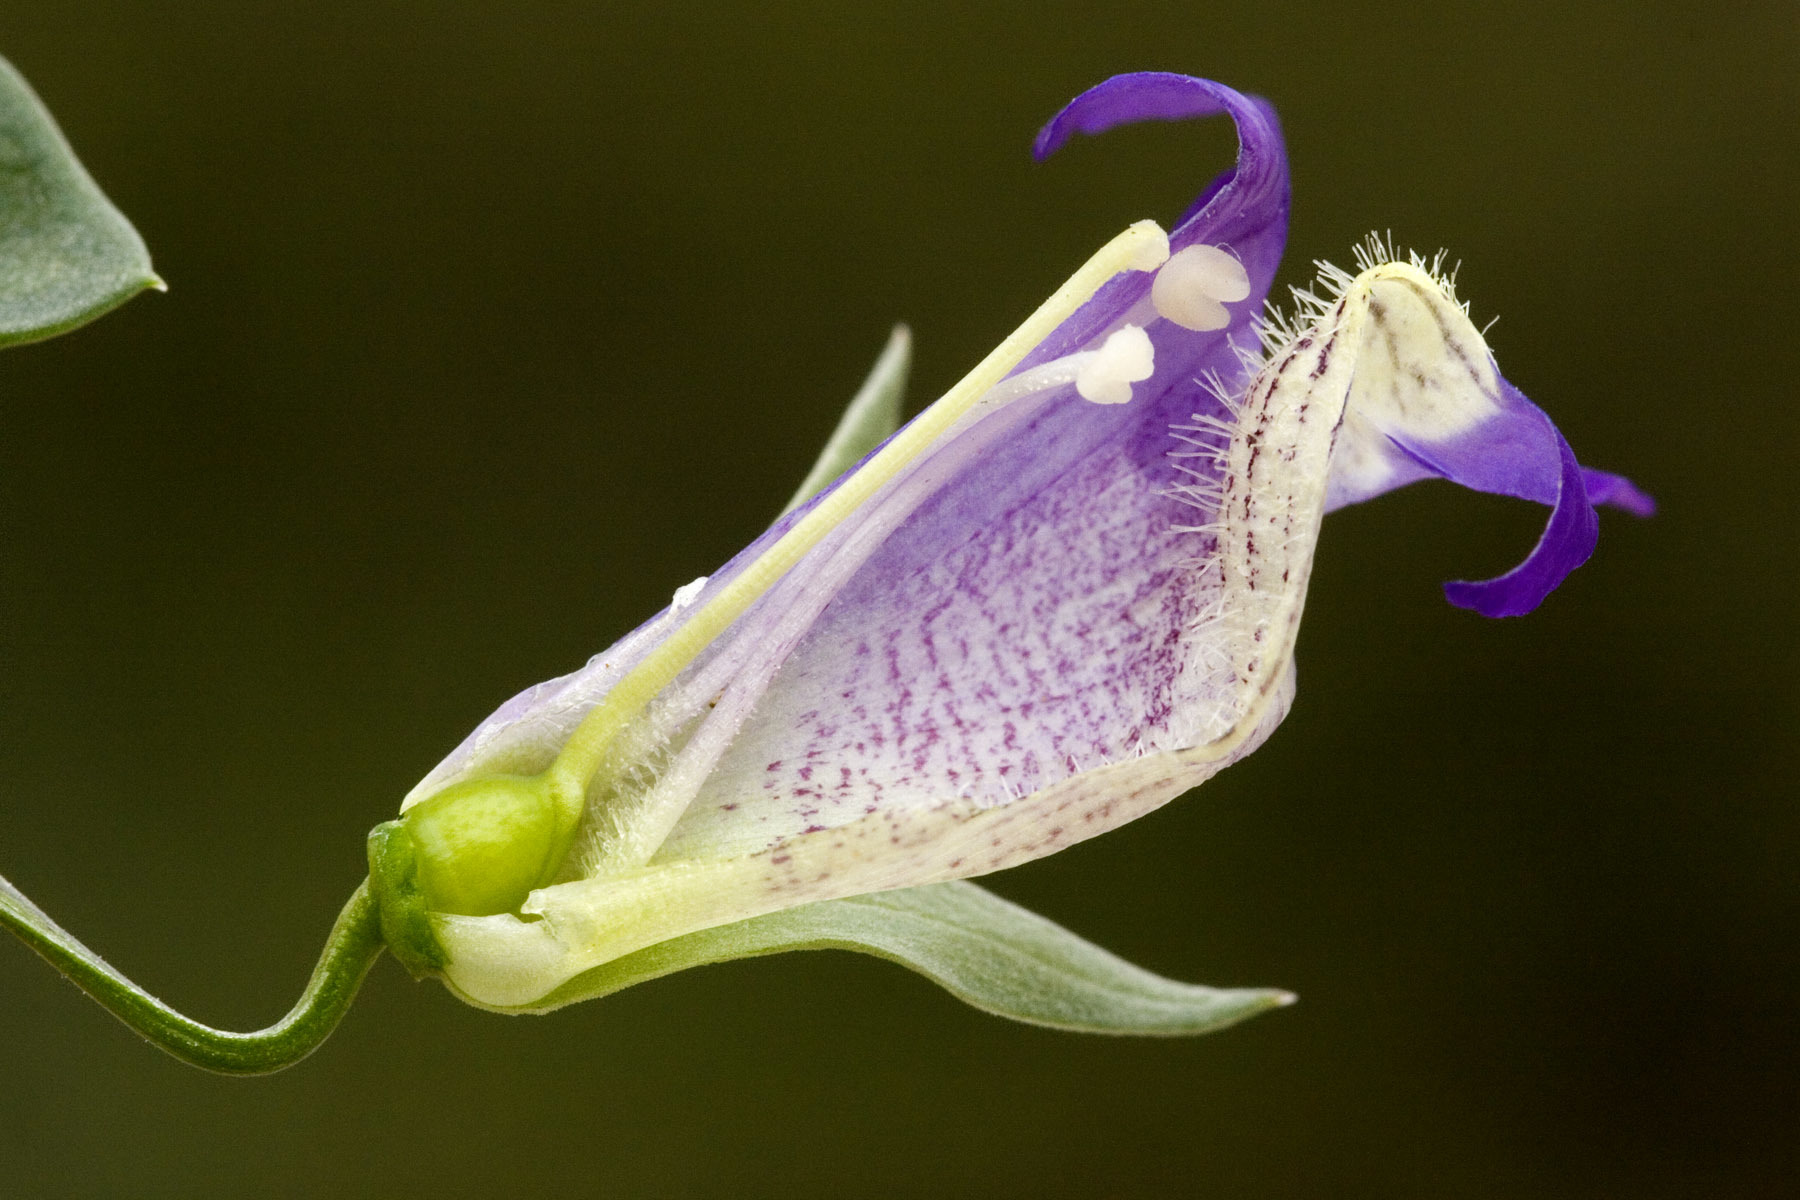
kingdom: Plantae
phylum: Tracheophyta
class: Magnoliopsida
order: Lamiales
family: Plantaginaceae
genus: Maurandella
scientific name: Maurandella antirrhiniflora
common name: Violet twining-snapdragon
